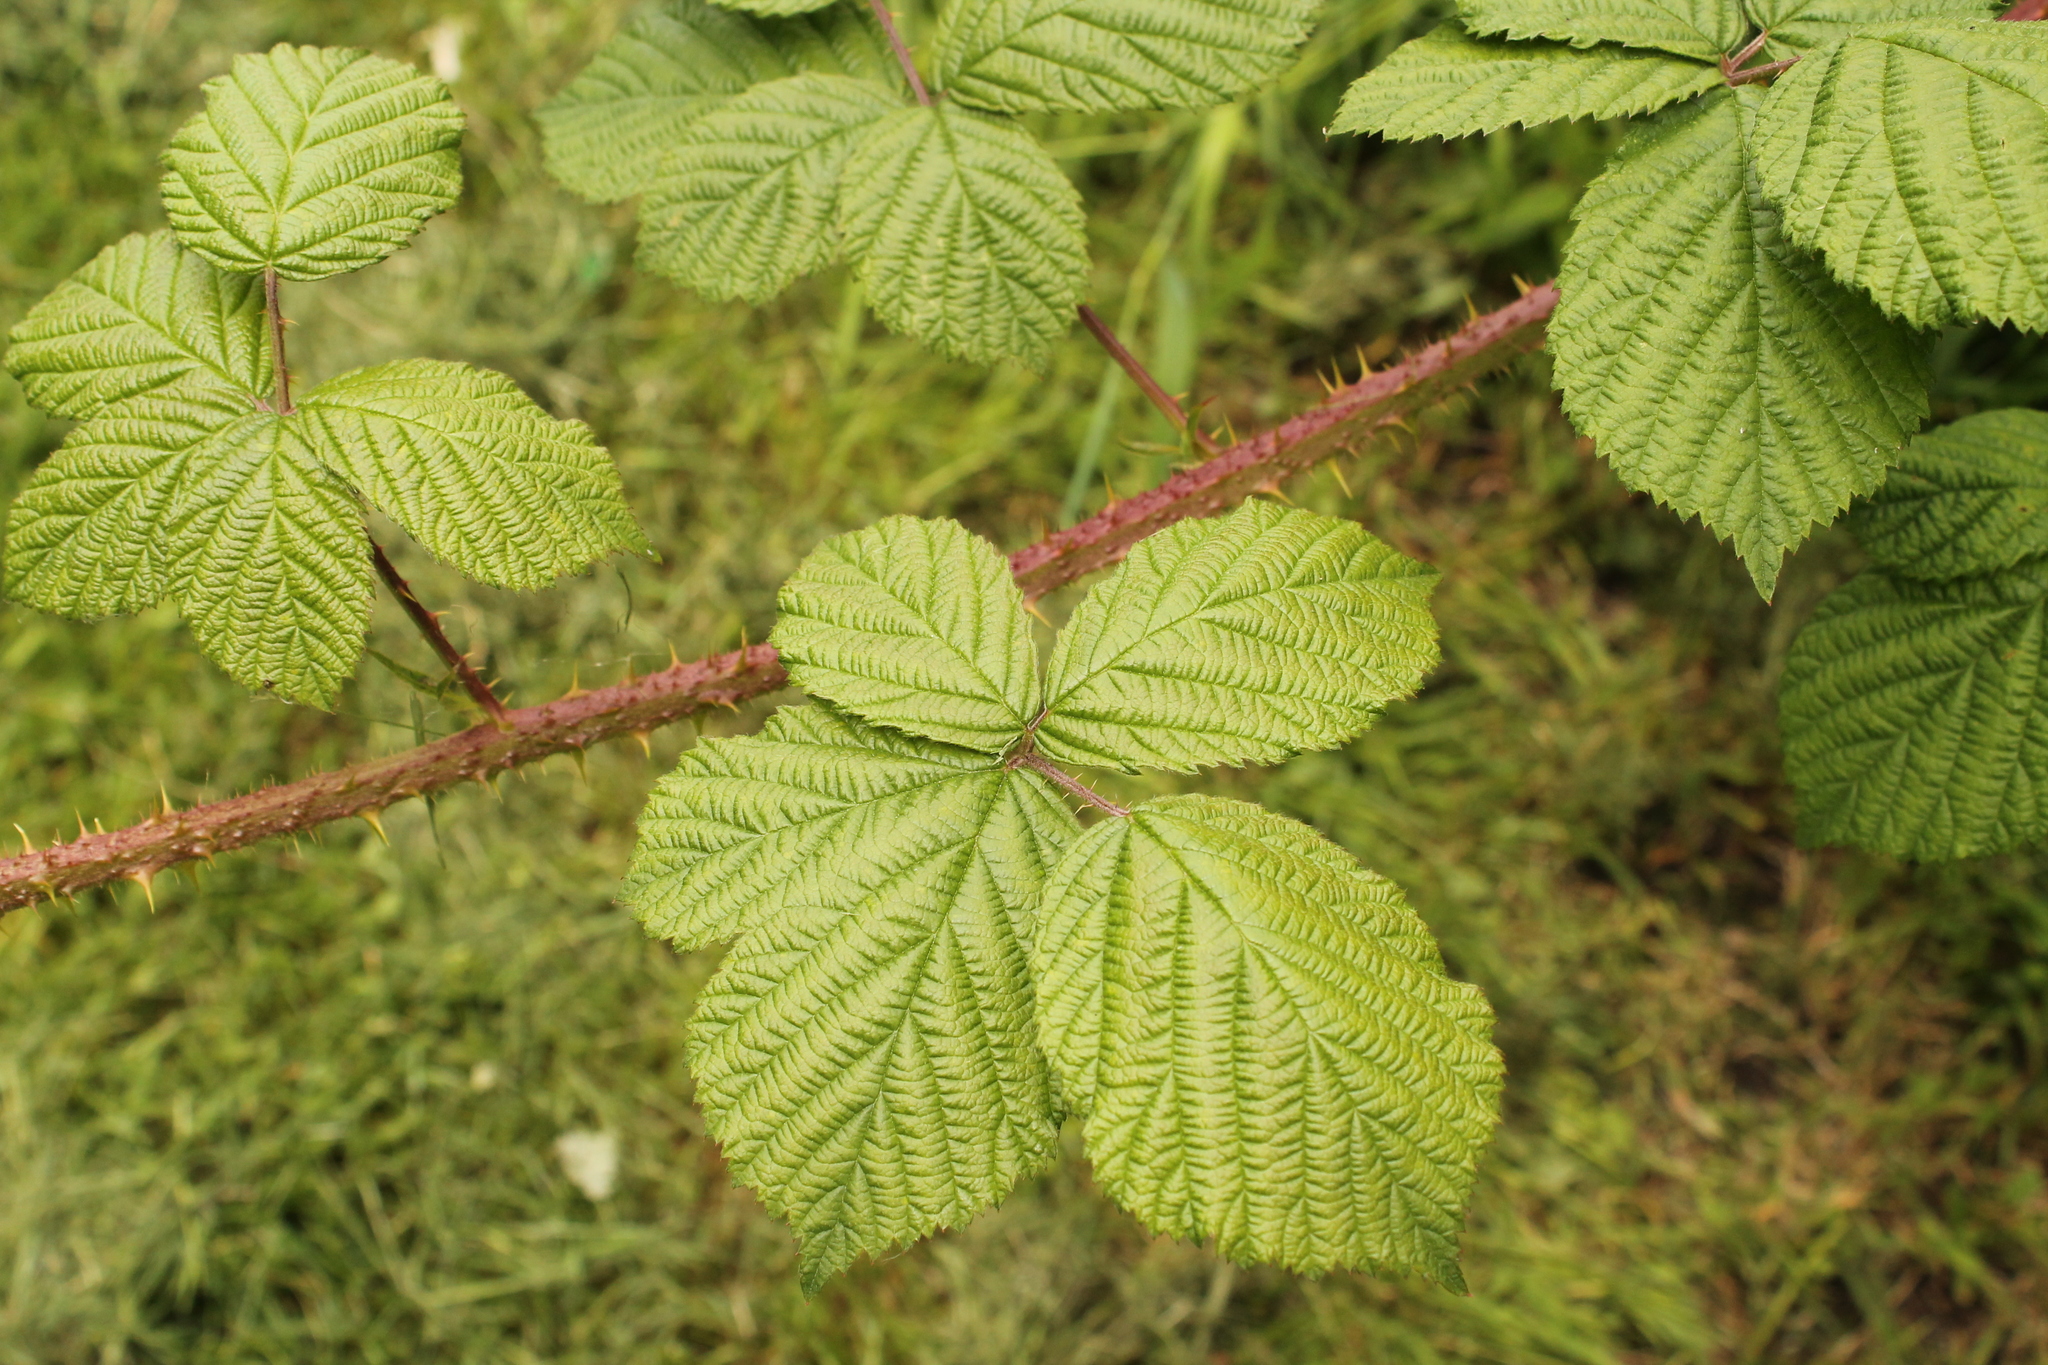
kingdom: Plantae
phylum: Tracheophyta
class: Magnoliopsida
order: Rosales
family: Rosaceae
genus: Rubus
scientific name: Rubus horrefactus
